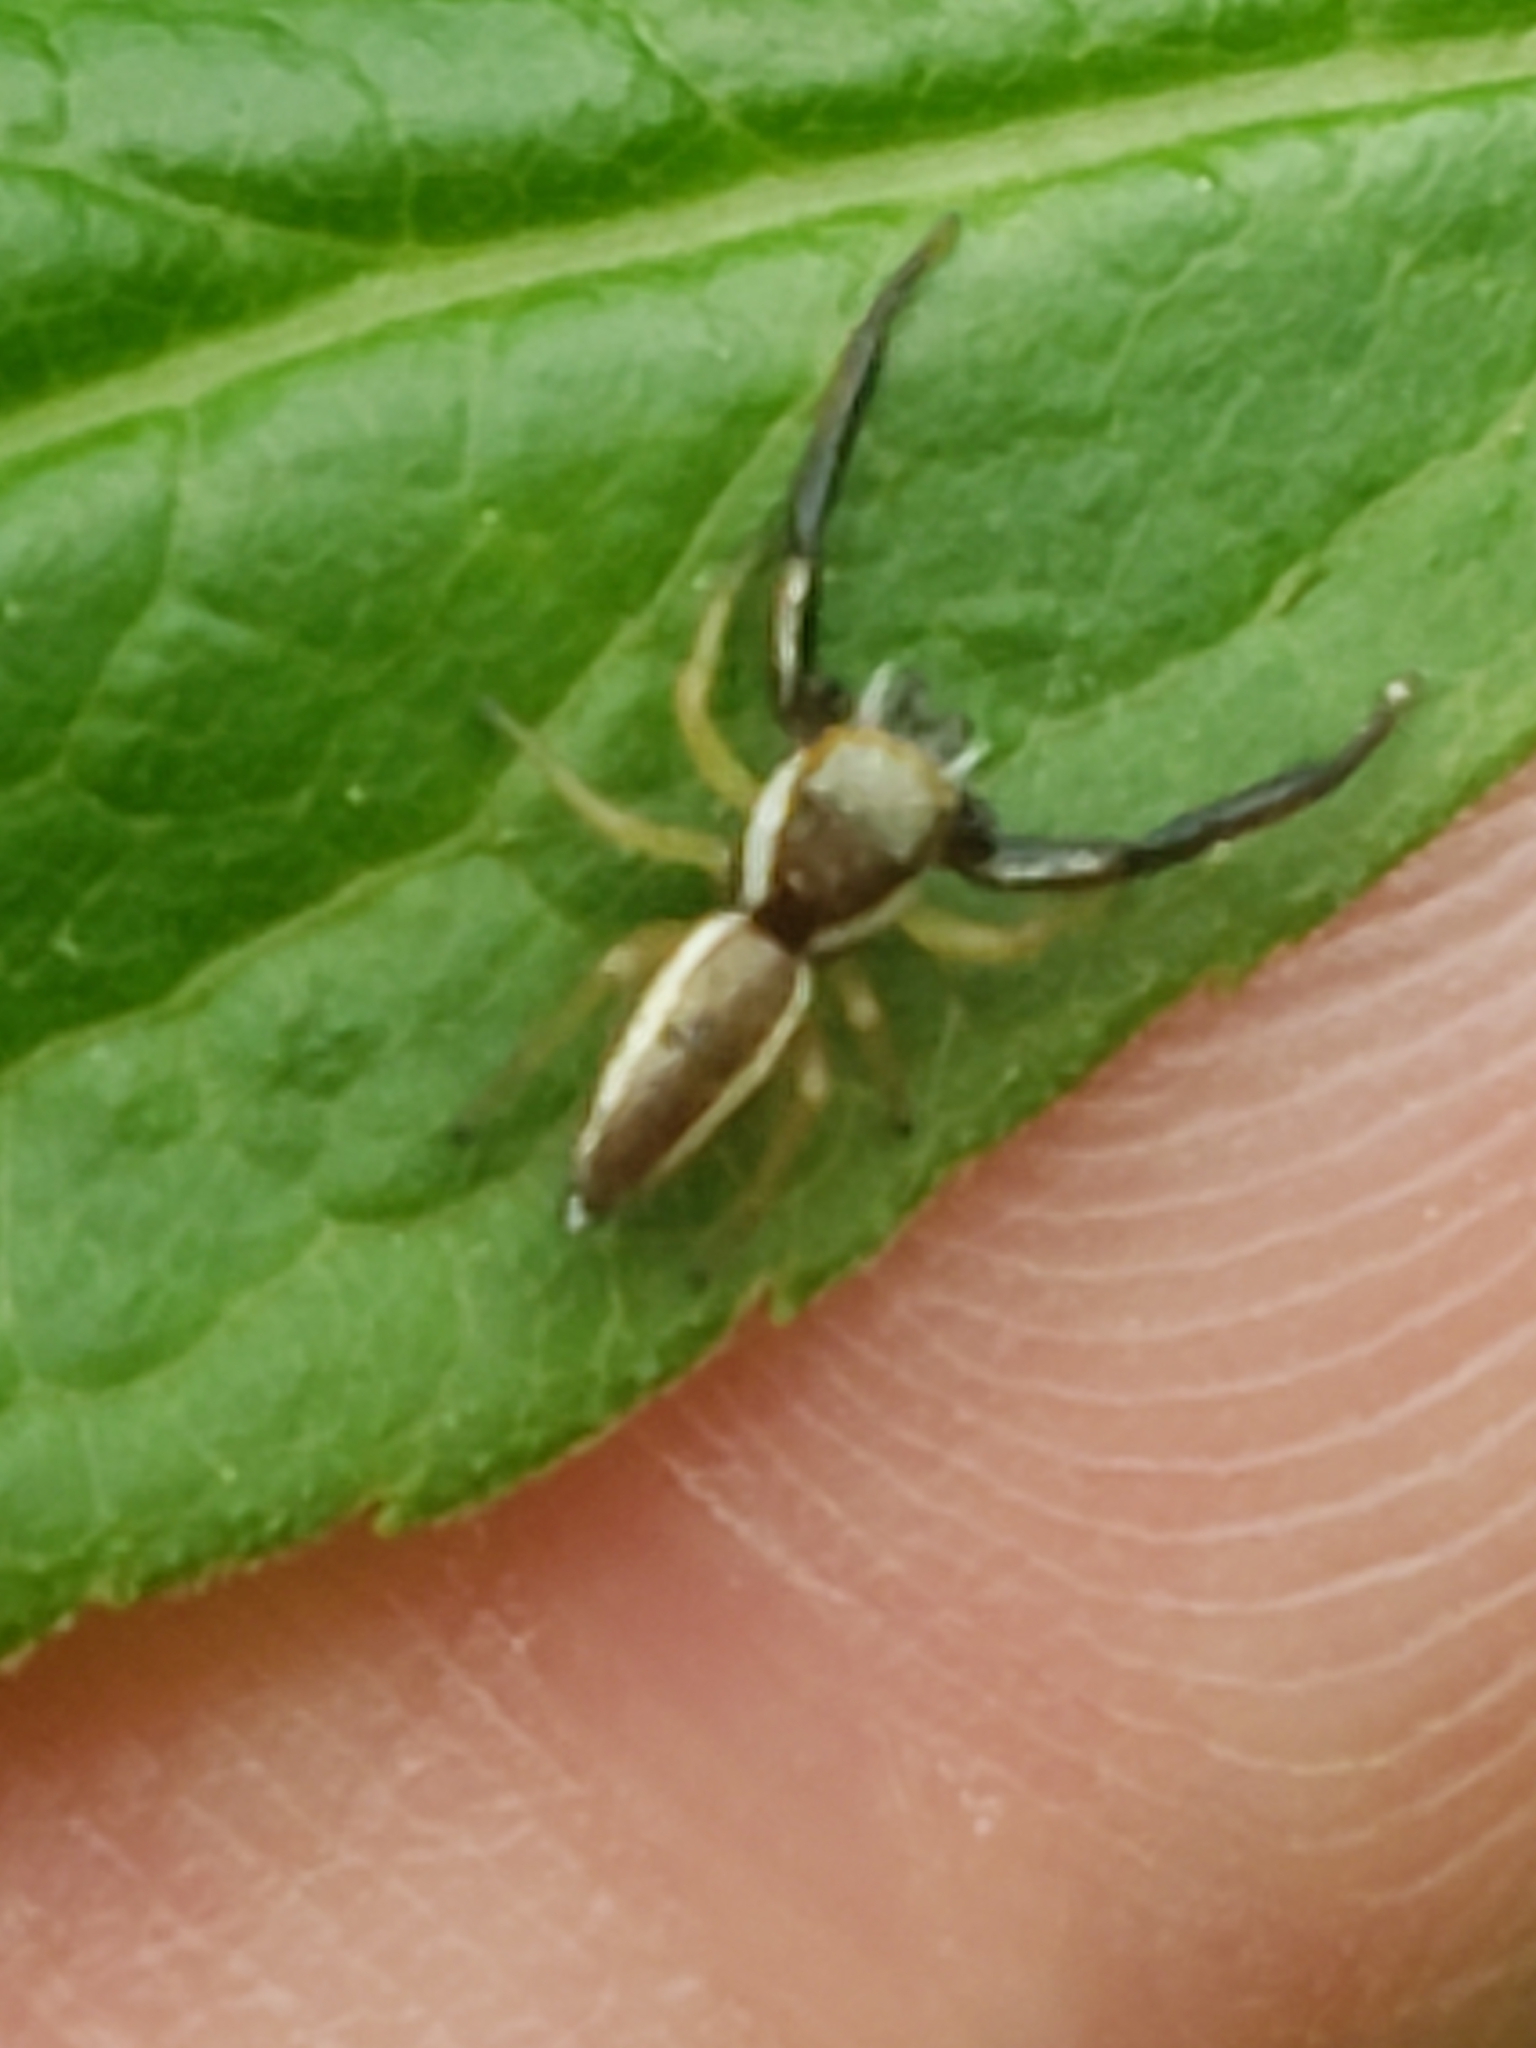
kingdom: Animalia
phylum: Arthropoda
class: Arachnida
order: Araneae
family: Salticidae
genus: Hentzia
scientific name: Hentzia palmarum
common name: Common hentz jumping spider
